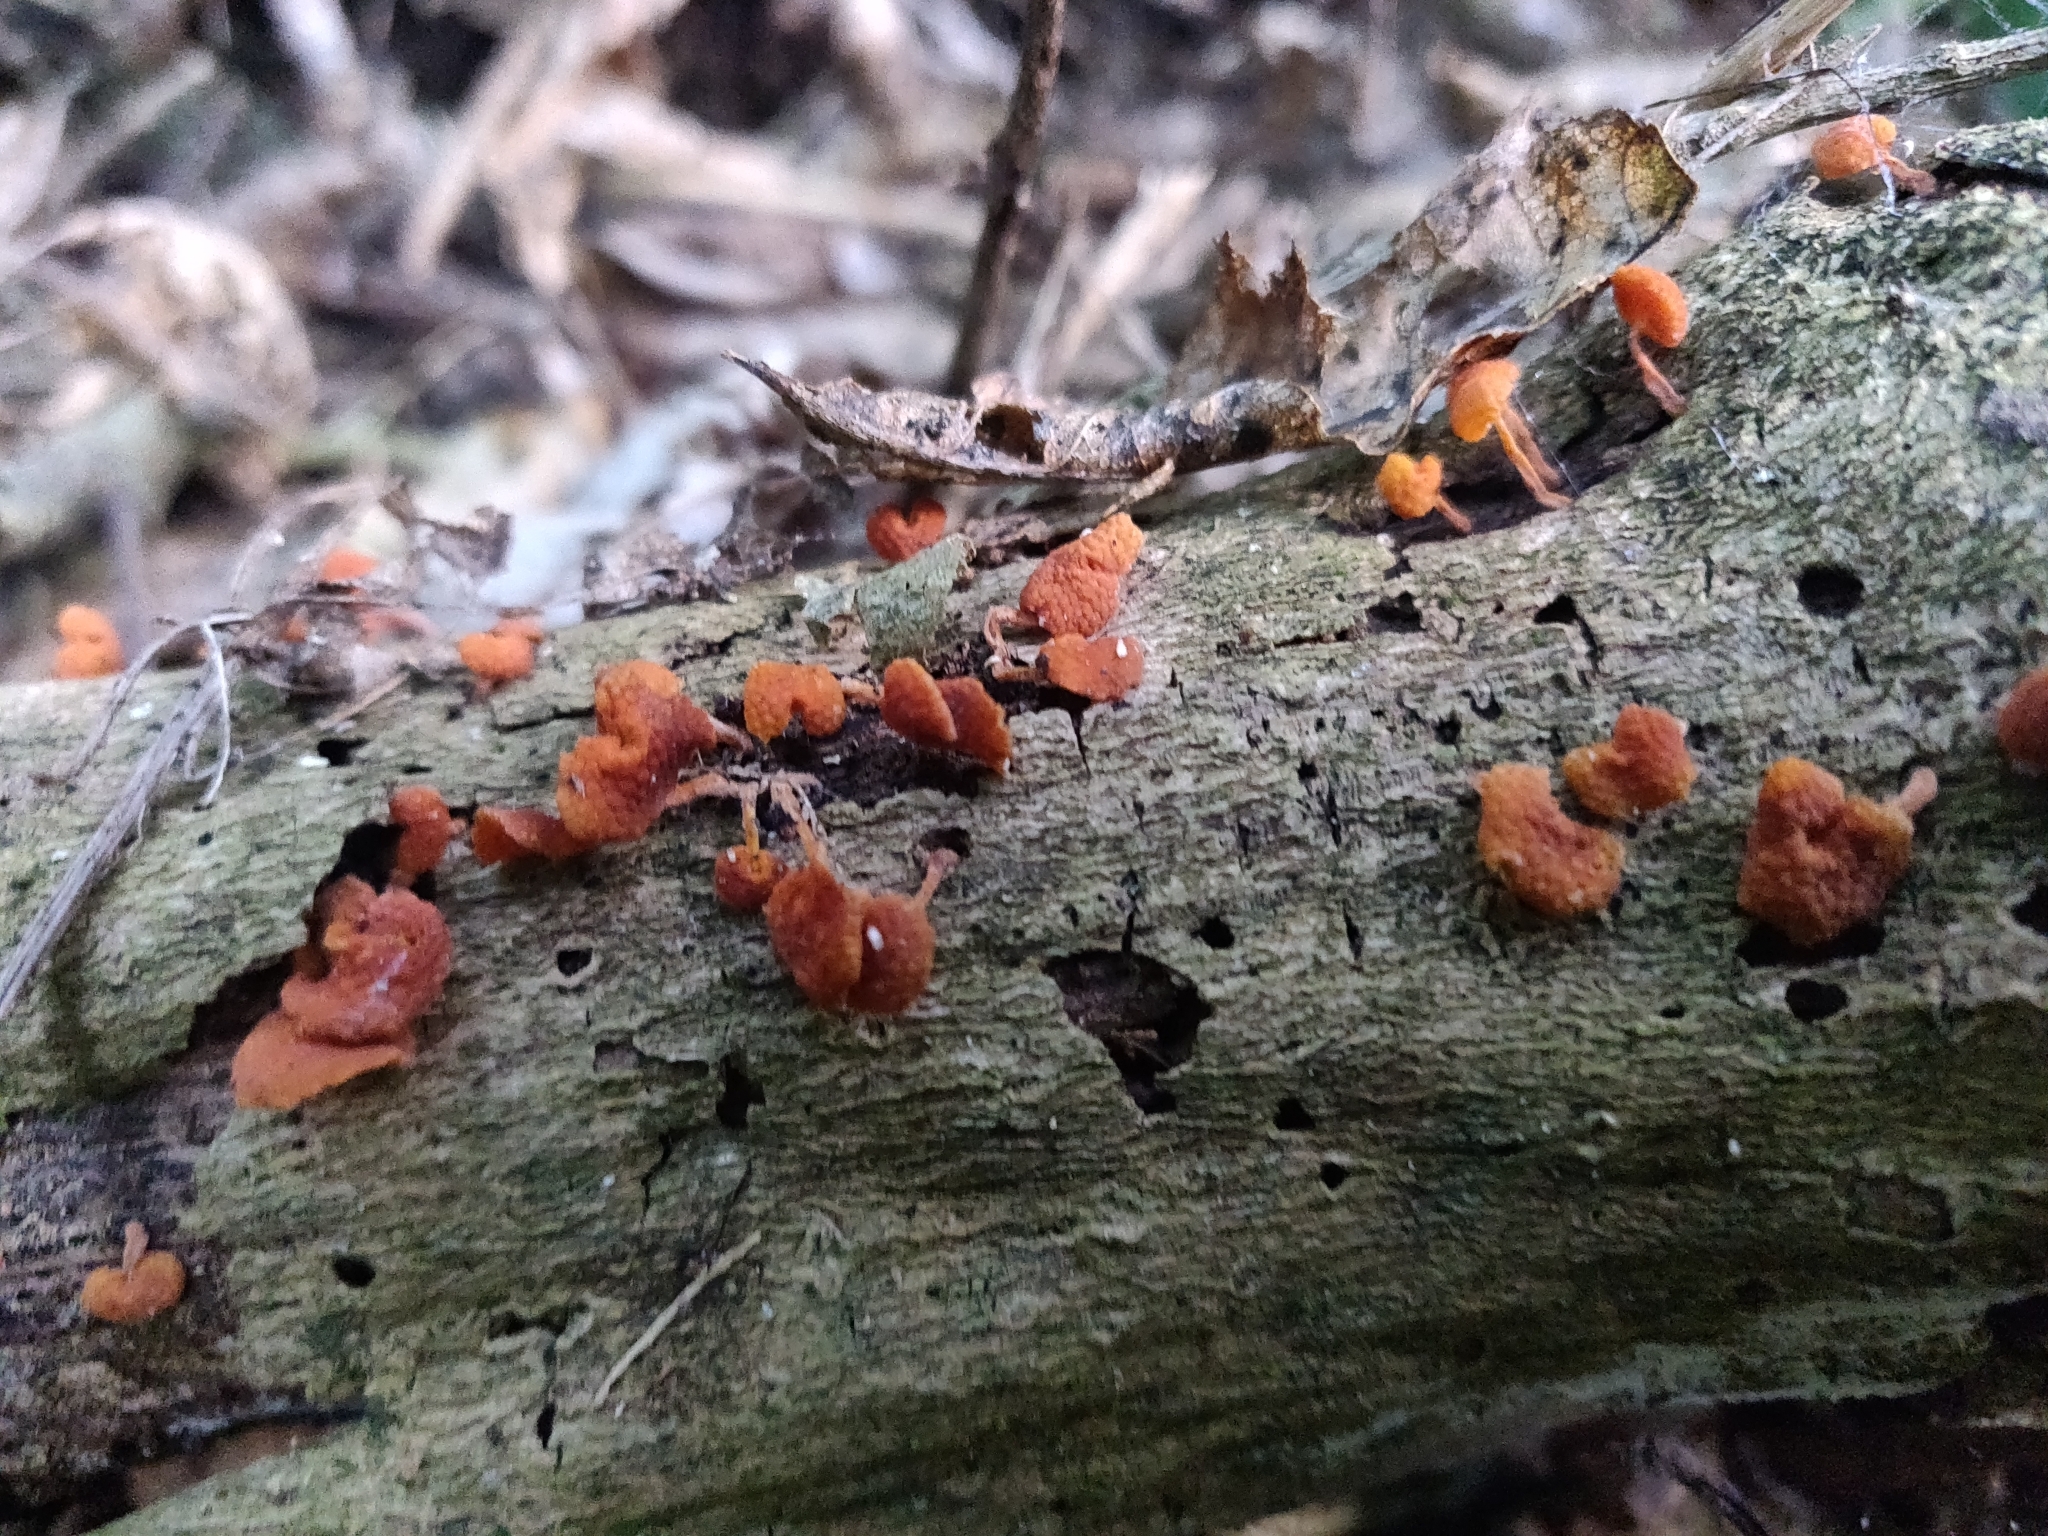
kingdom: Fungi
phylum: Basidiomycota
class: Agaricomycetes
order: Agaricales
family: Mycenaceae
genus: Favolaschia
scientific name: Favolaschia claudopus
